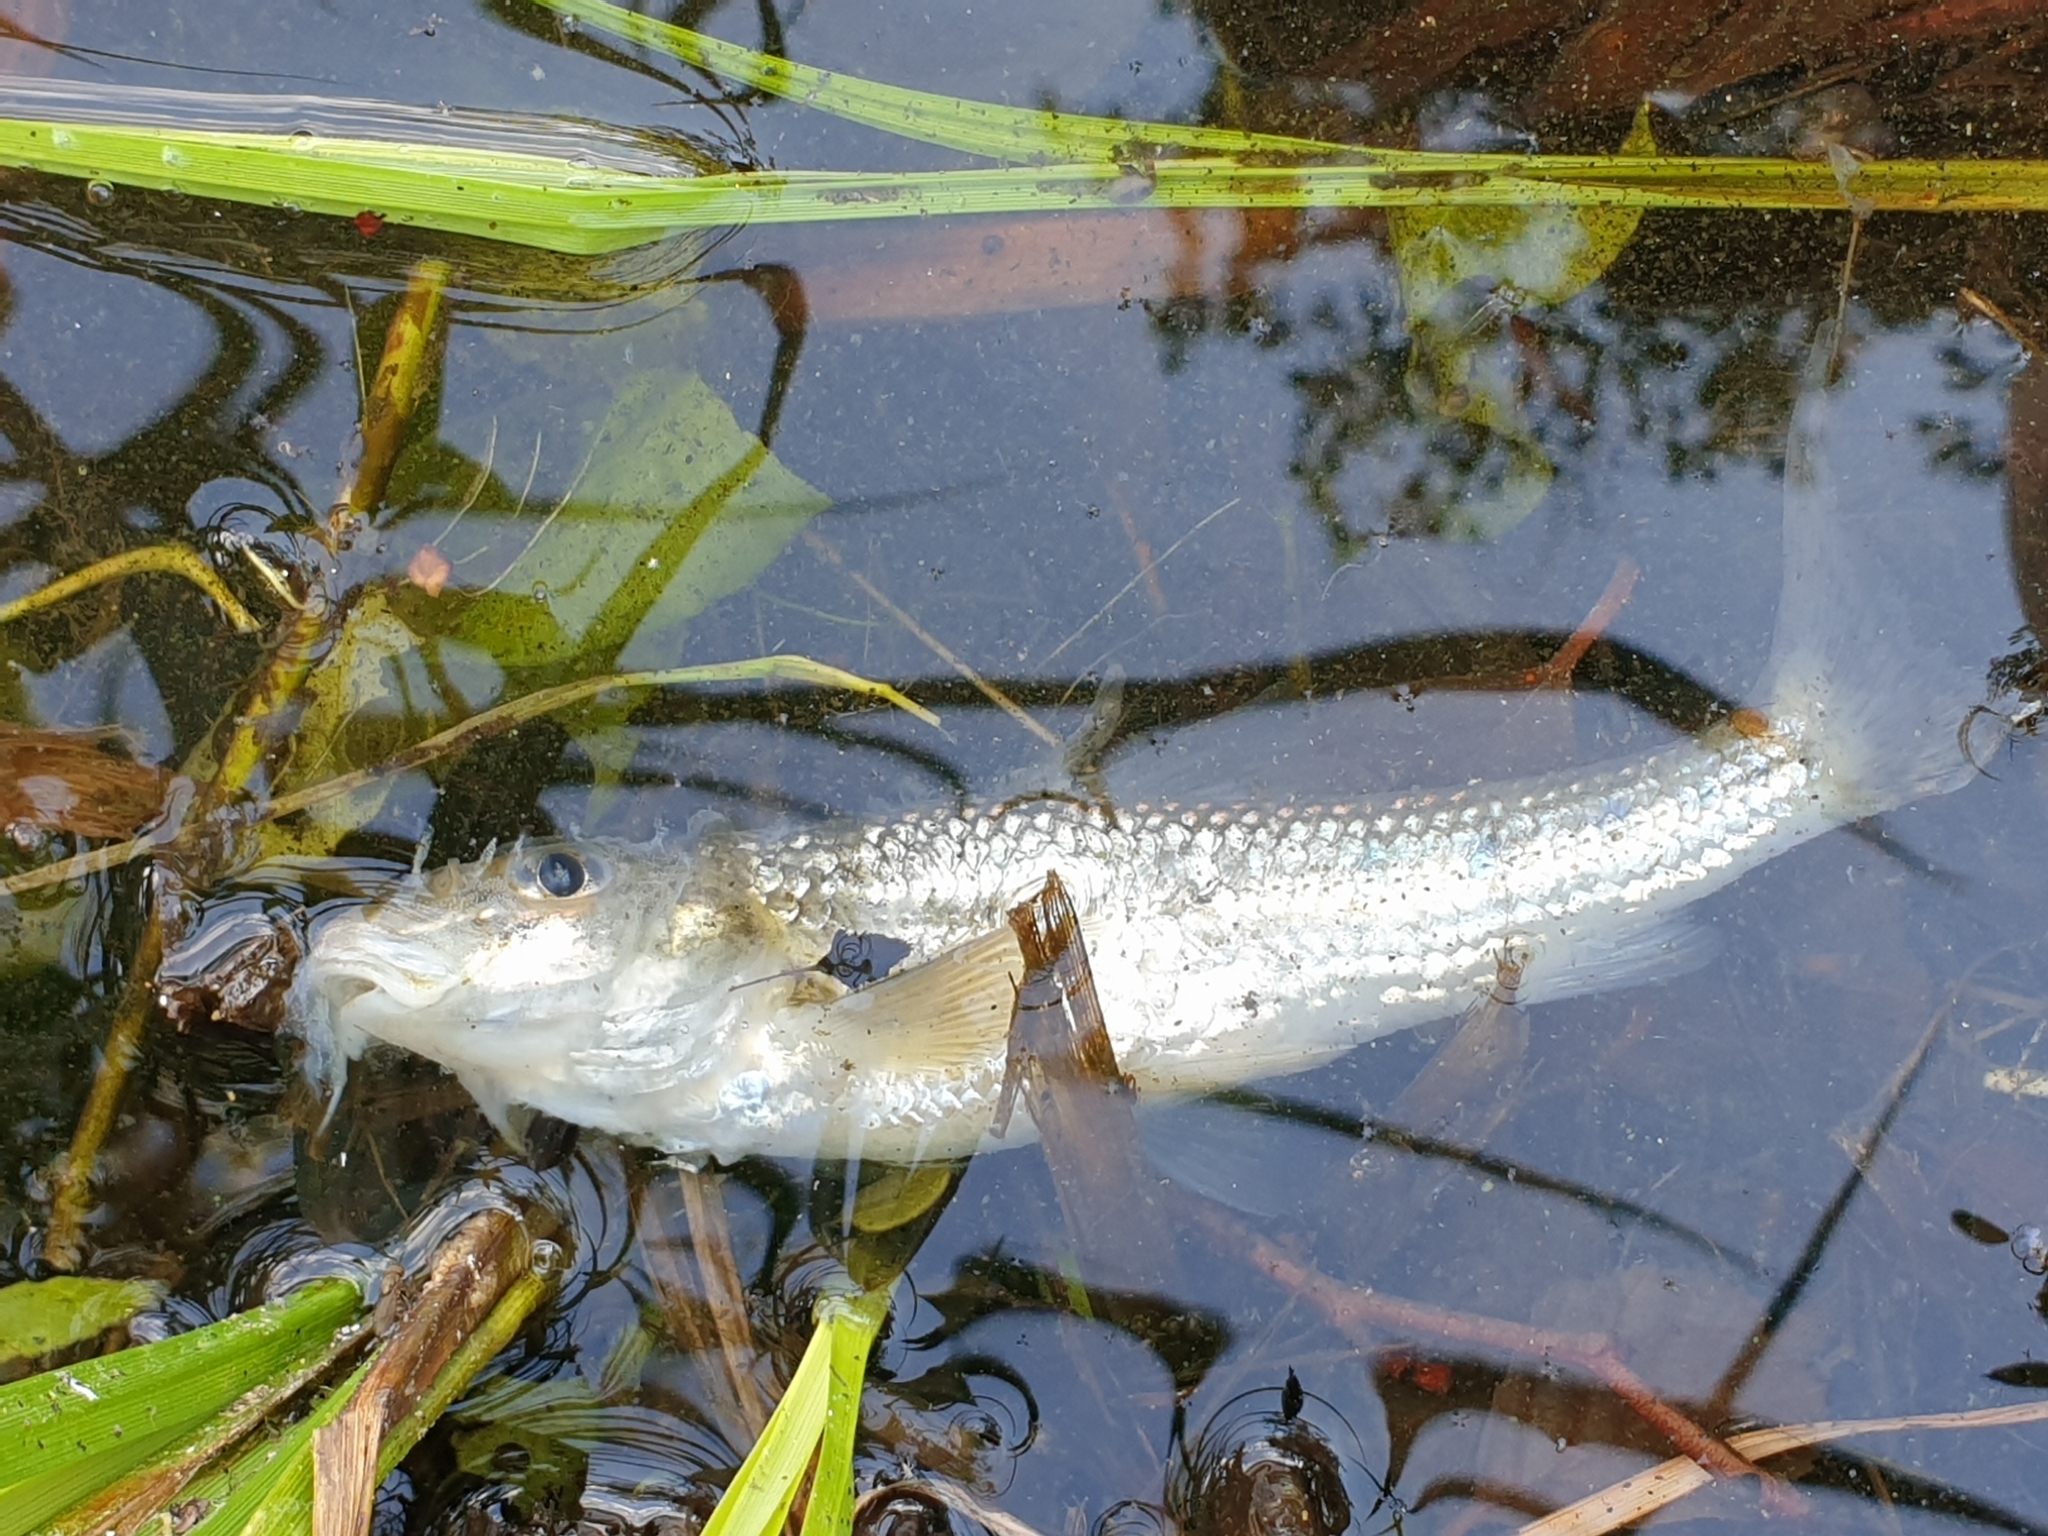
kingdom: Animalia
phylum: Chordata
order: Cypriniformes
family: Cyprinidae
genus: Gobio
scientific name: Gobio gobio
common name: Gudgeon
